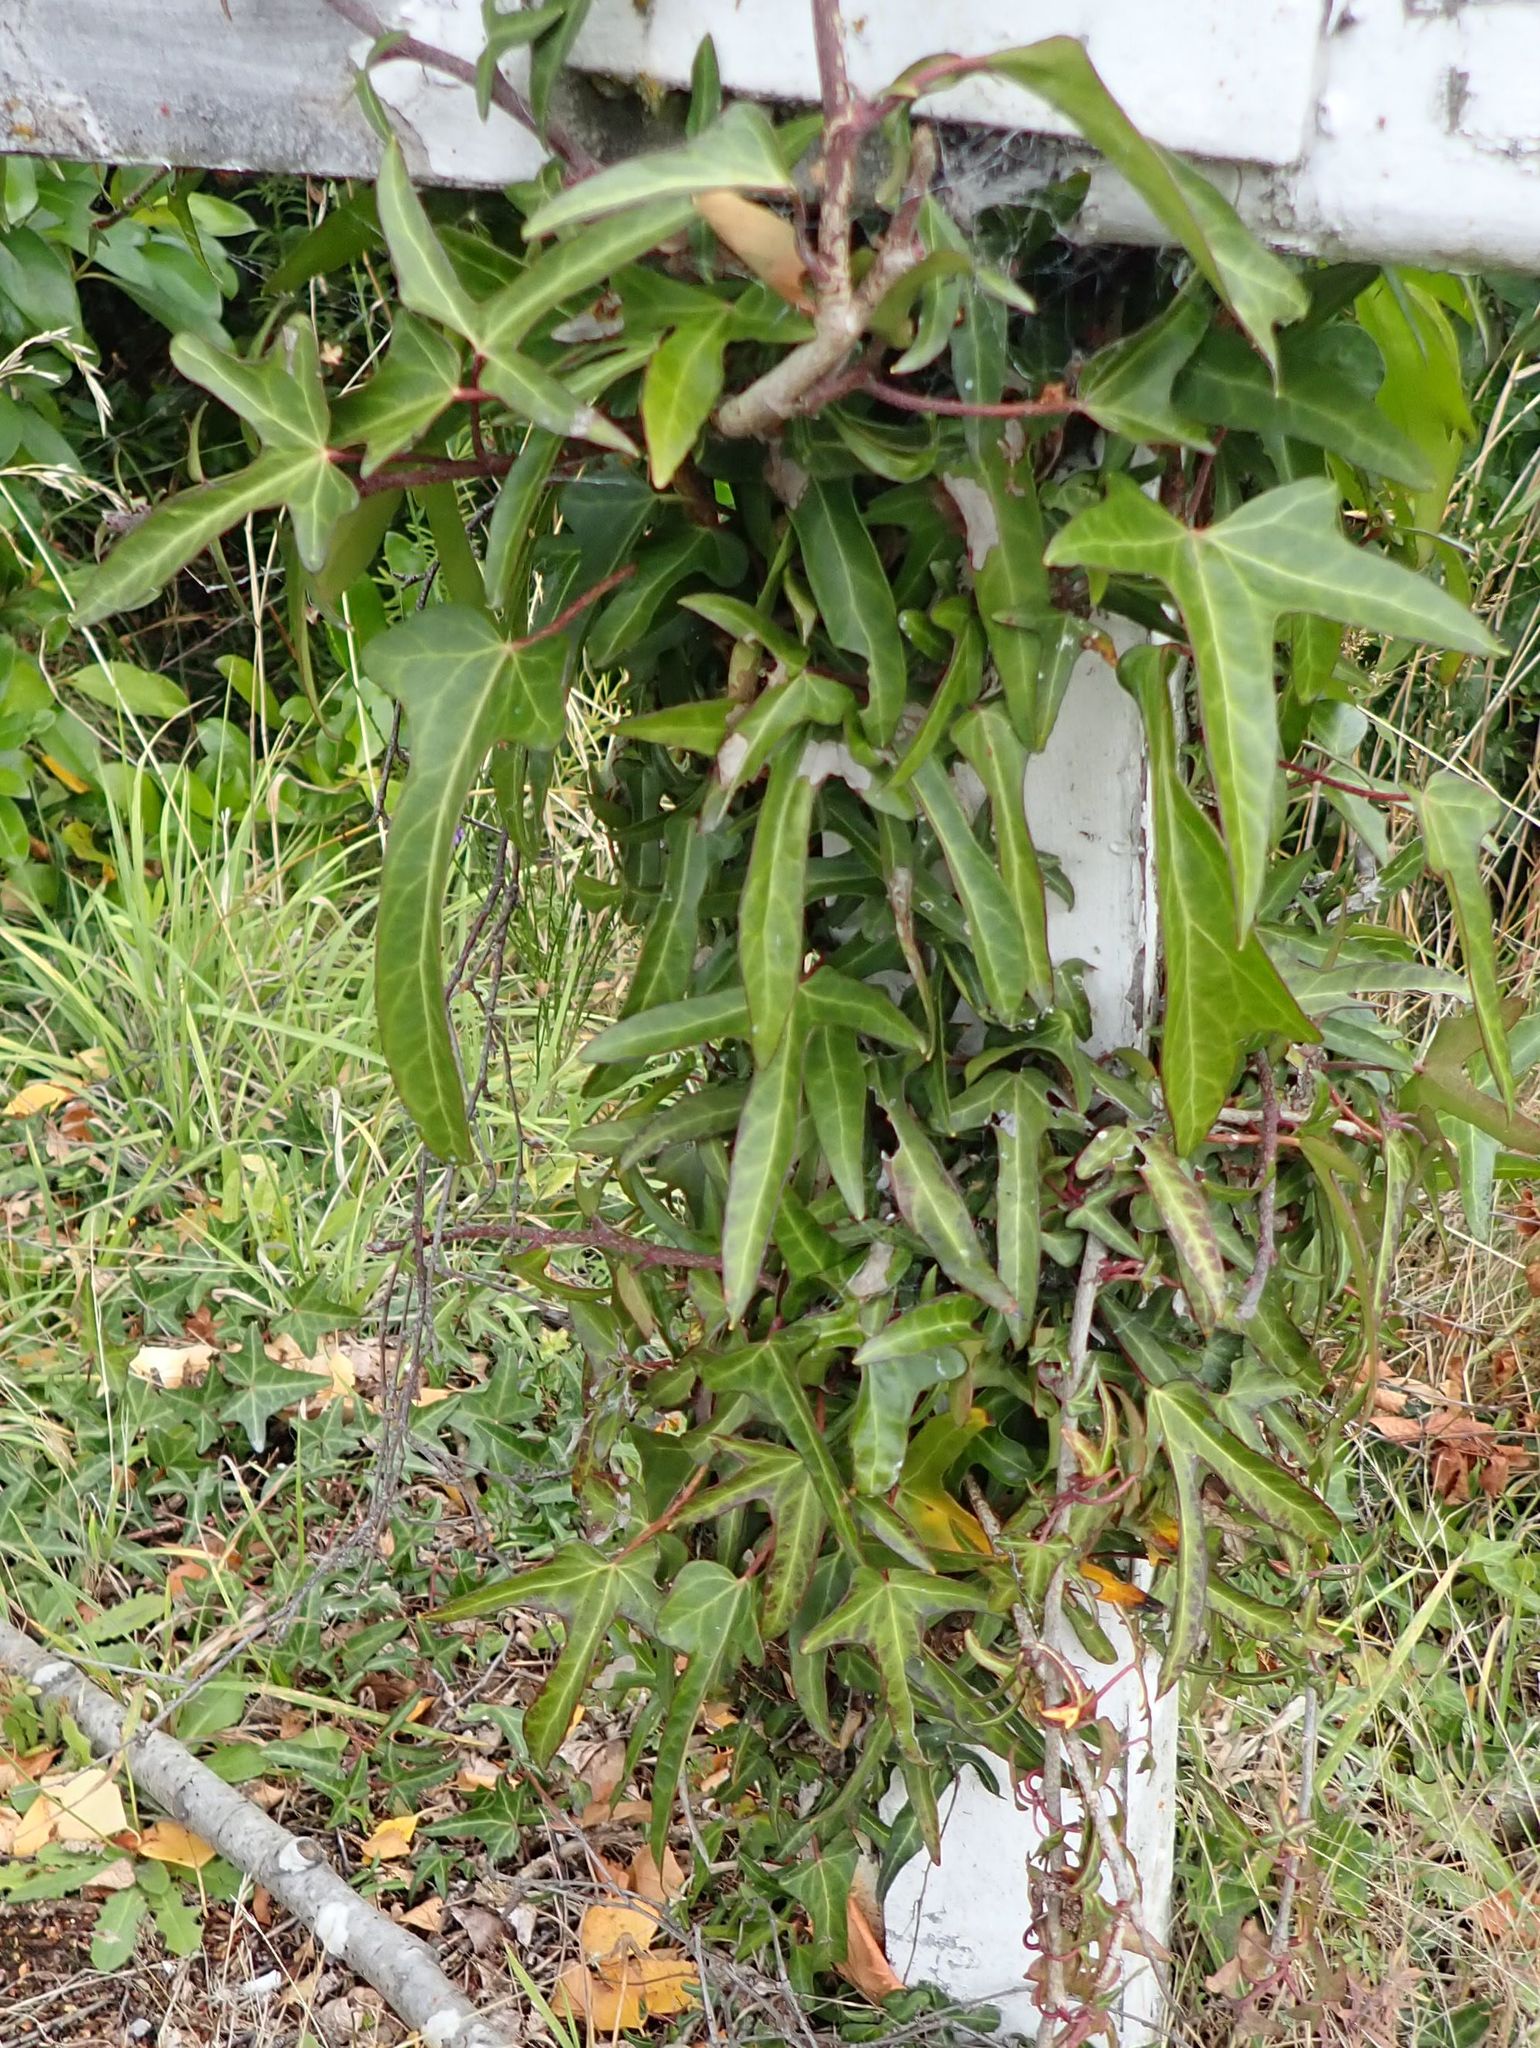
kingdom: Plantae
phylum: Tracheophyta
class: Magnoliopsida
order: Apiales
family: Araliaceae
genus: Hedera
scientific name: Hedera helix
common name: Ivy
